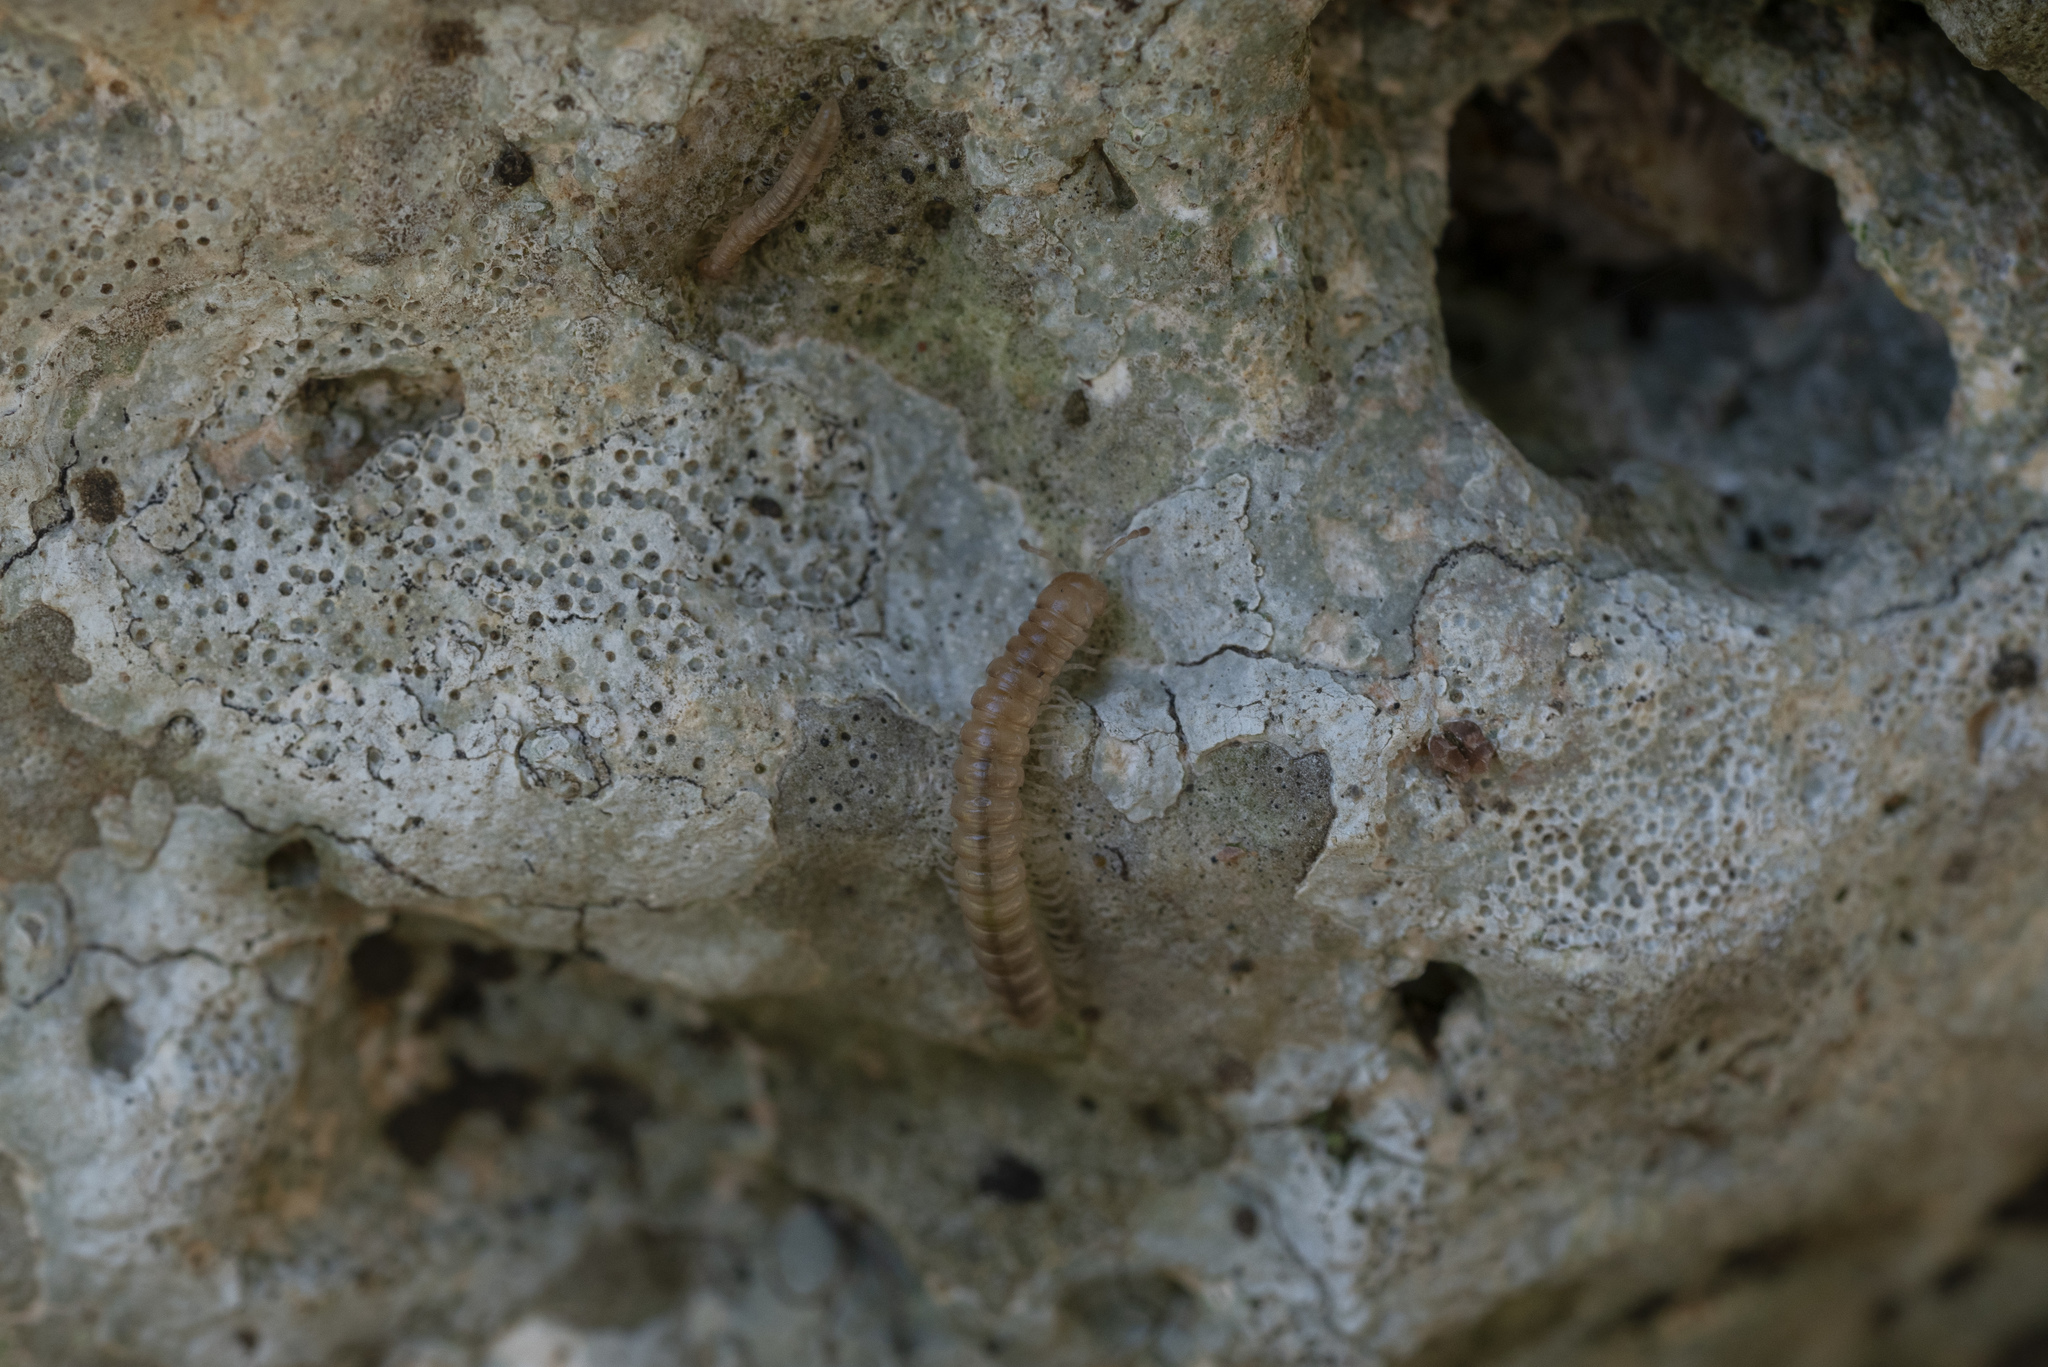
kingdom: Animalia
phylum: Arthropoda
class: Diplopoda
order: Polydesmida
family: Paradoxosomatidae
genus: Tetrarthrosoma
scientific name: Tetrarthrosoma pallidicephalum
